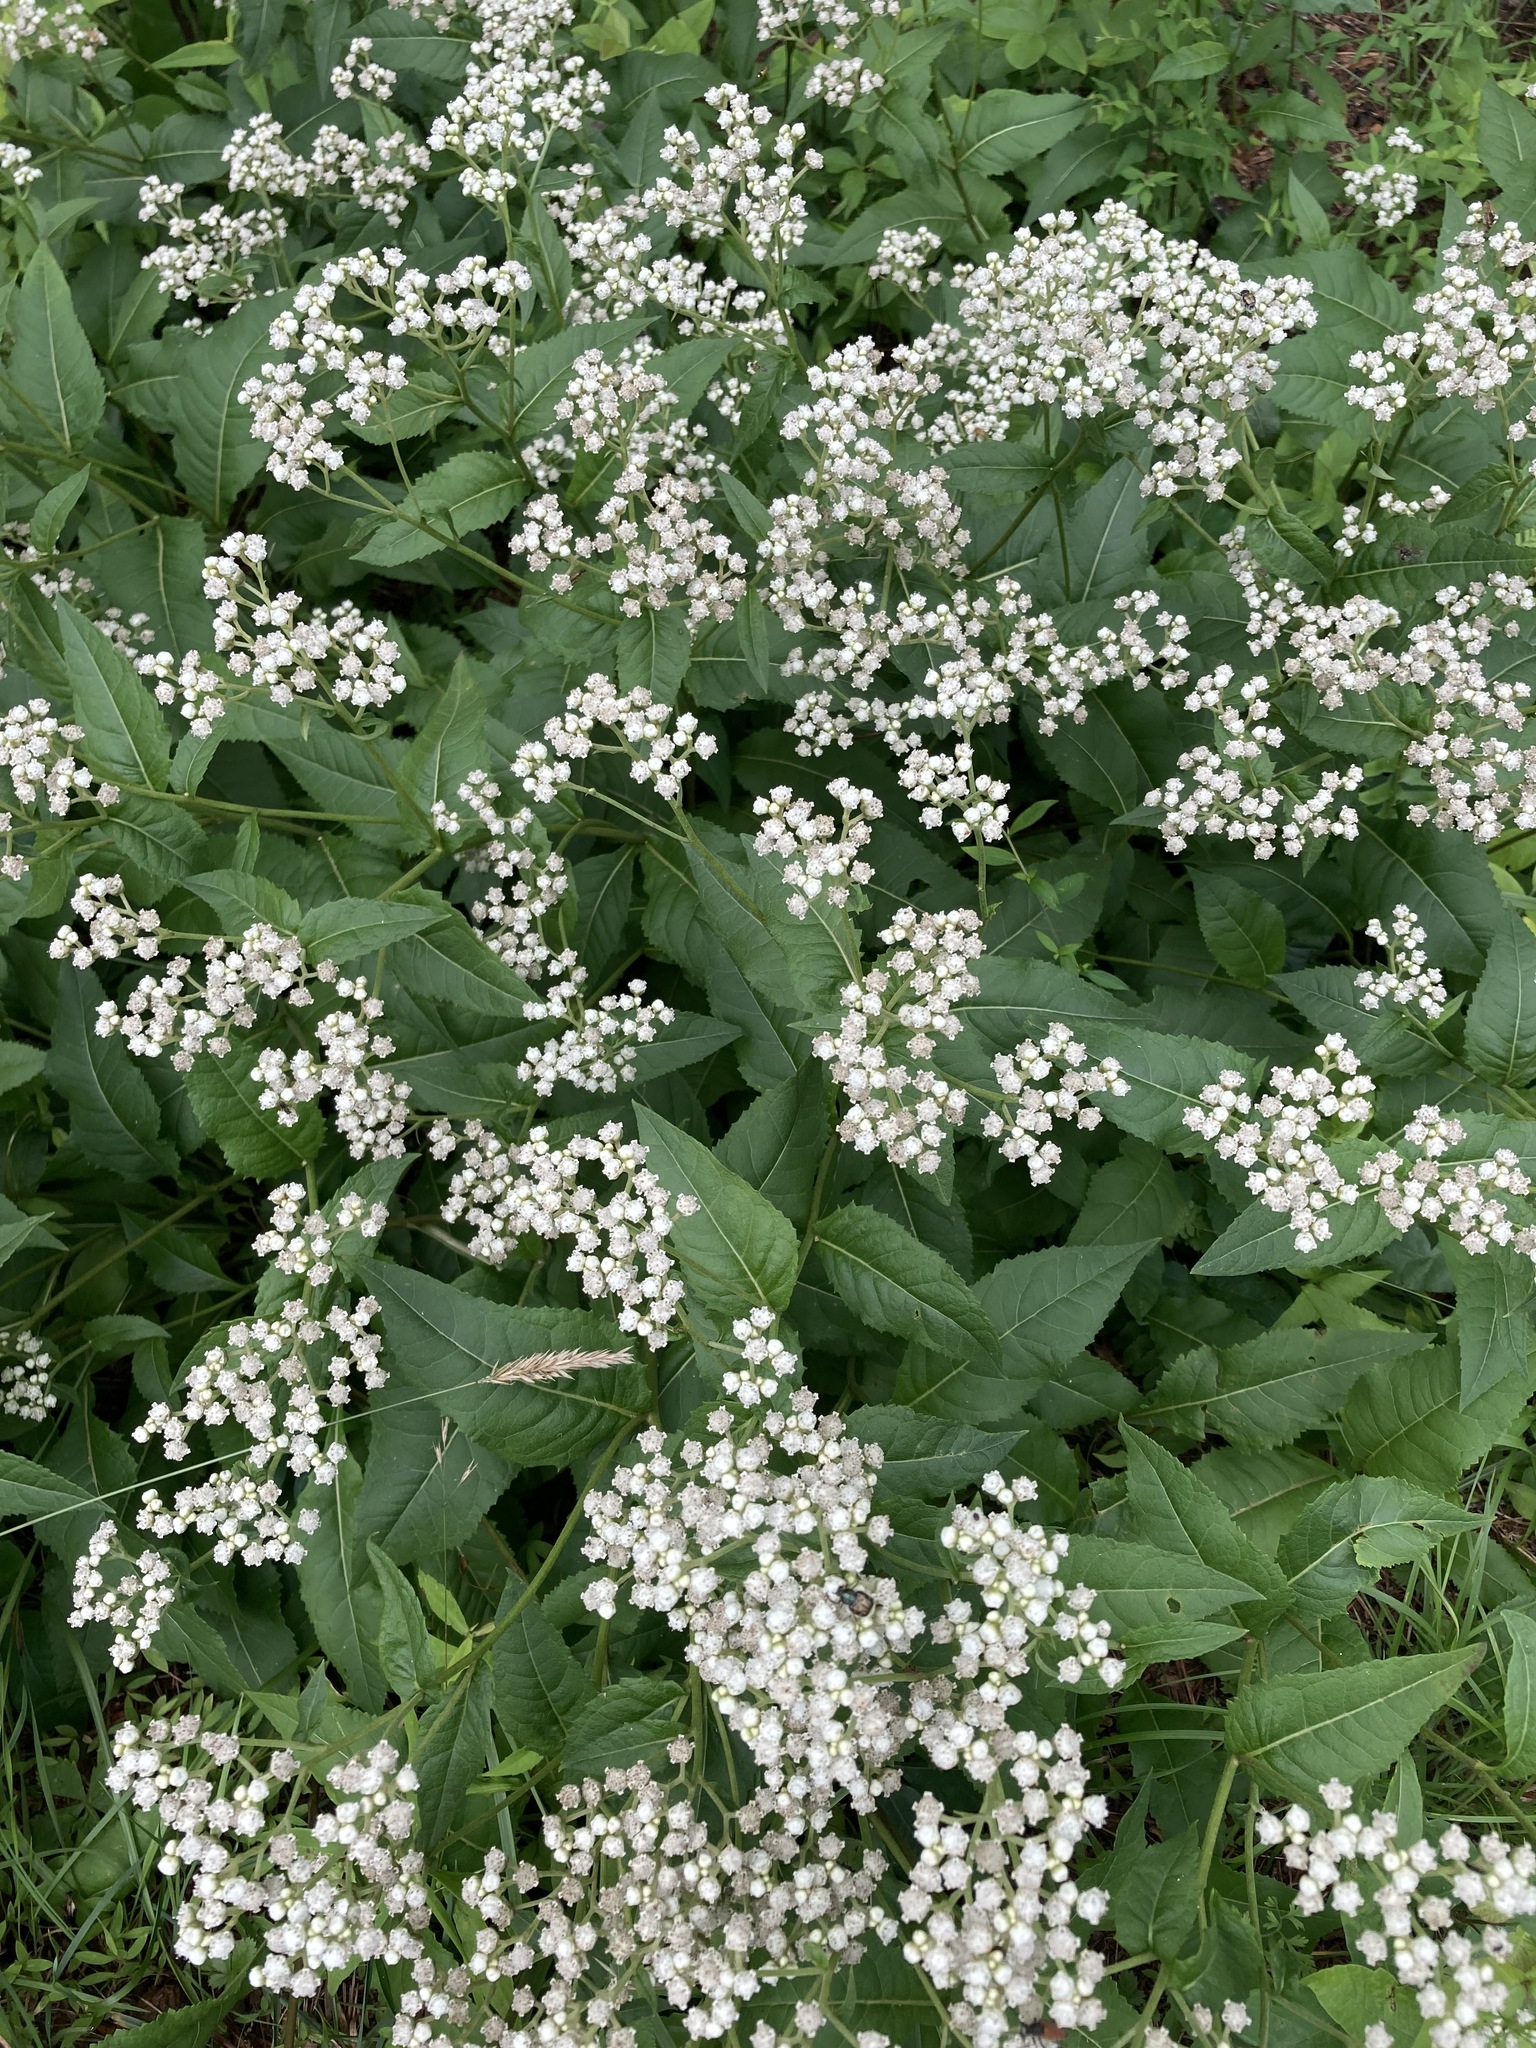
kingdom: Plantae
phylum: Tracheophyta
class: Magnoliopsida
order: Asterales
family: Asteraceae
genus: Parthenium
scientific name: Parthenium integrifolium
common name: American feverfew
